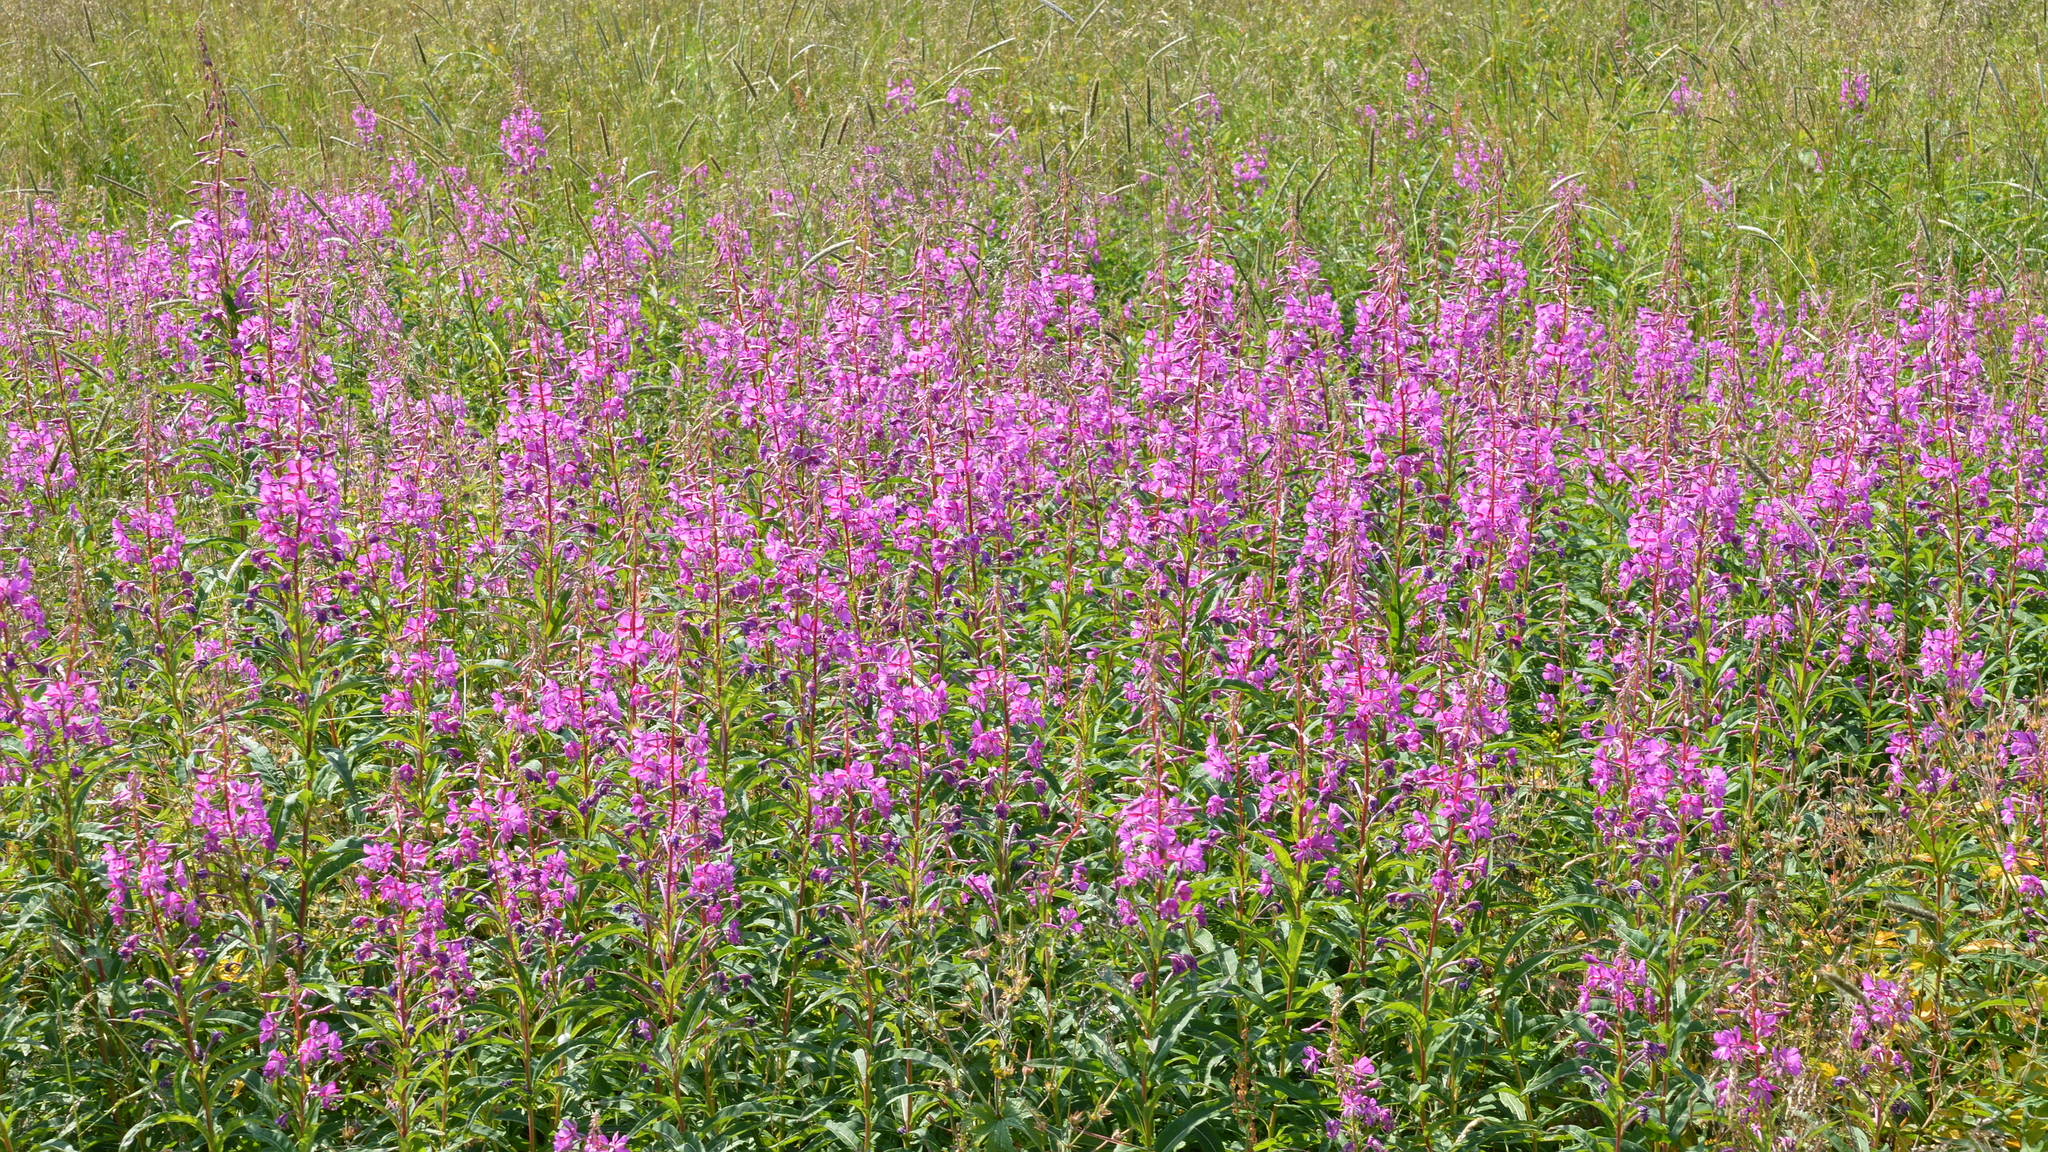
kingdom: Plantae
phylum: Tracheophyta
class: Magnoliopsida
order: Myrtales
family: Onagraceae
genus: Chamaenerion
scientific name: Chamaenerion angustifolium
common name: Fireweed
